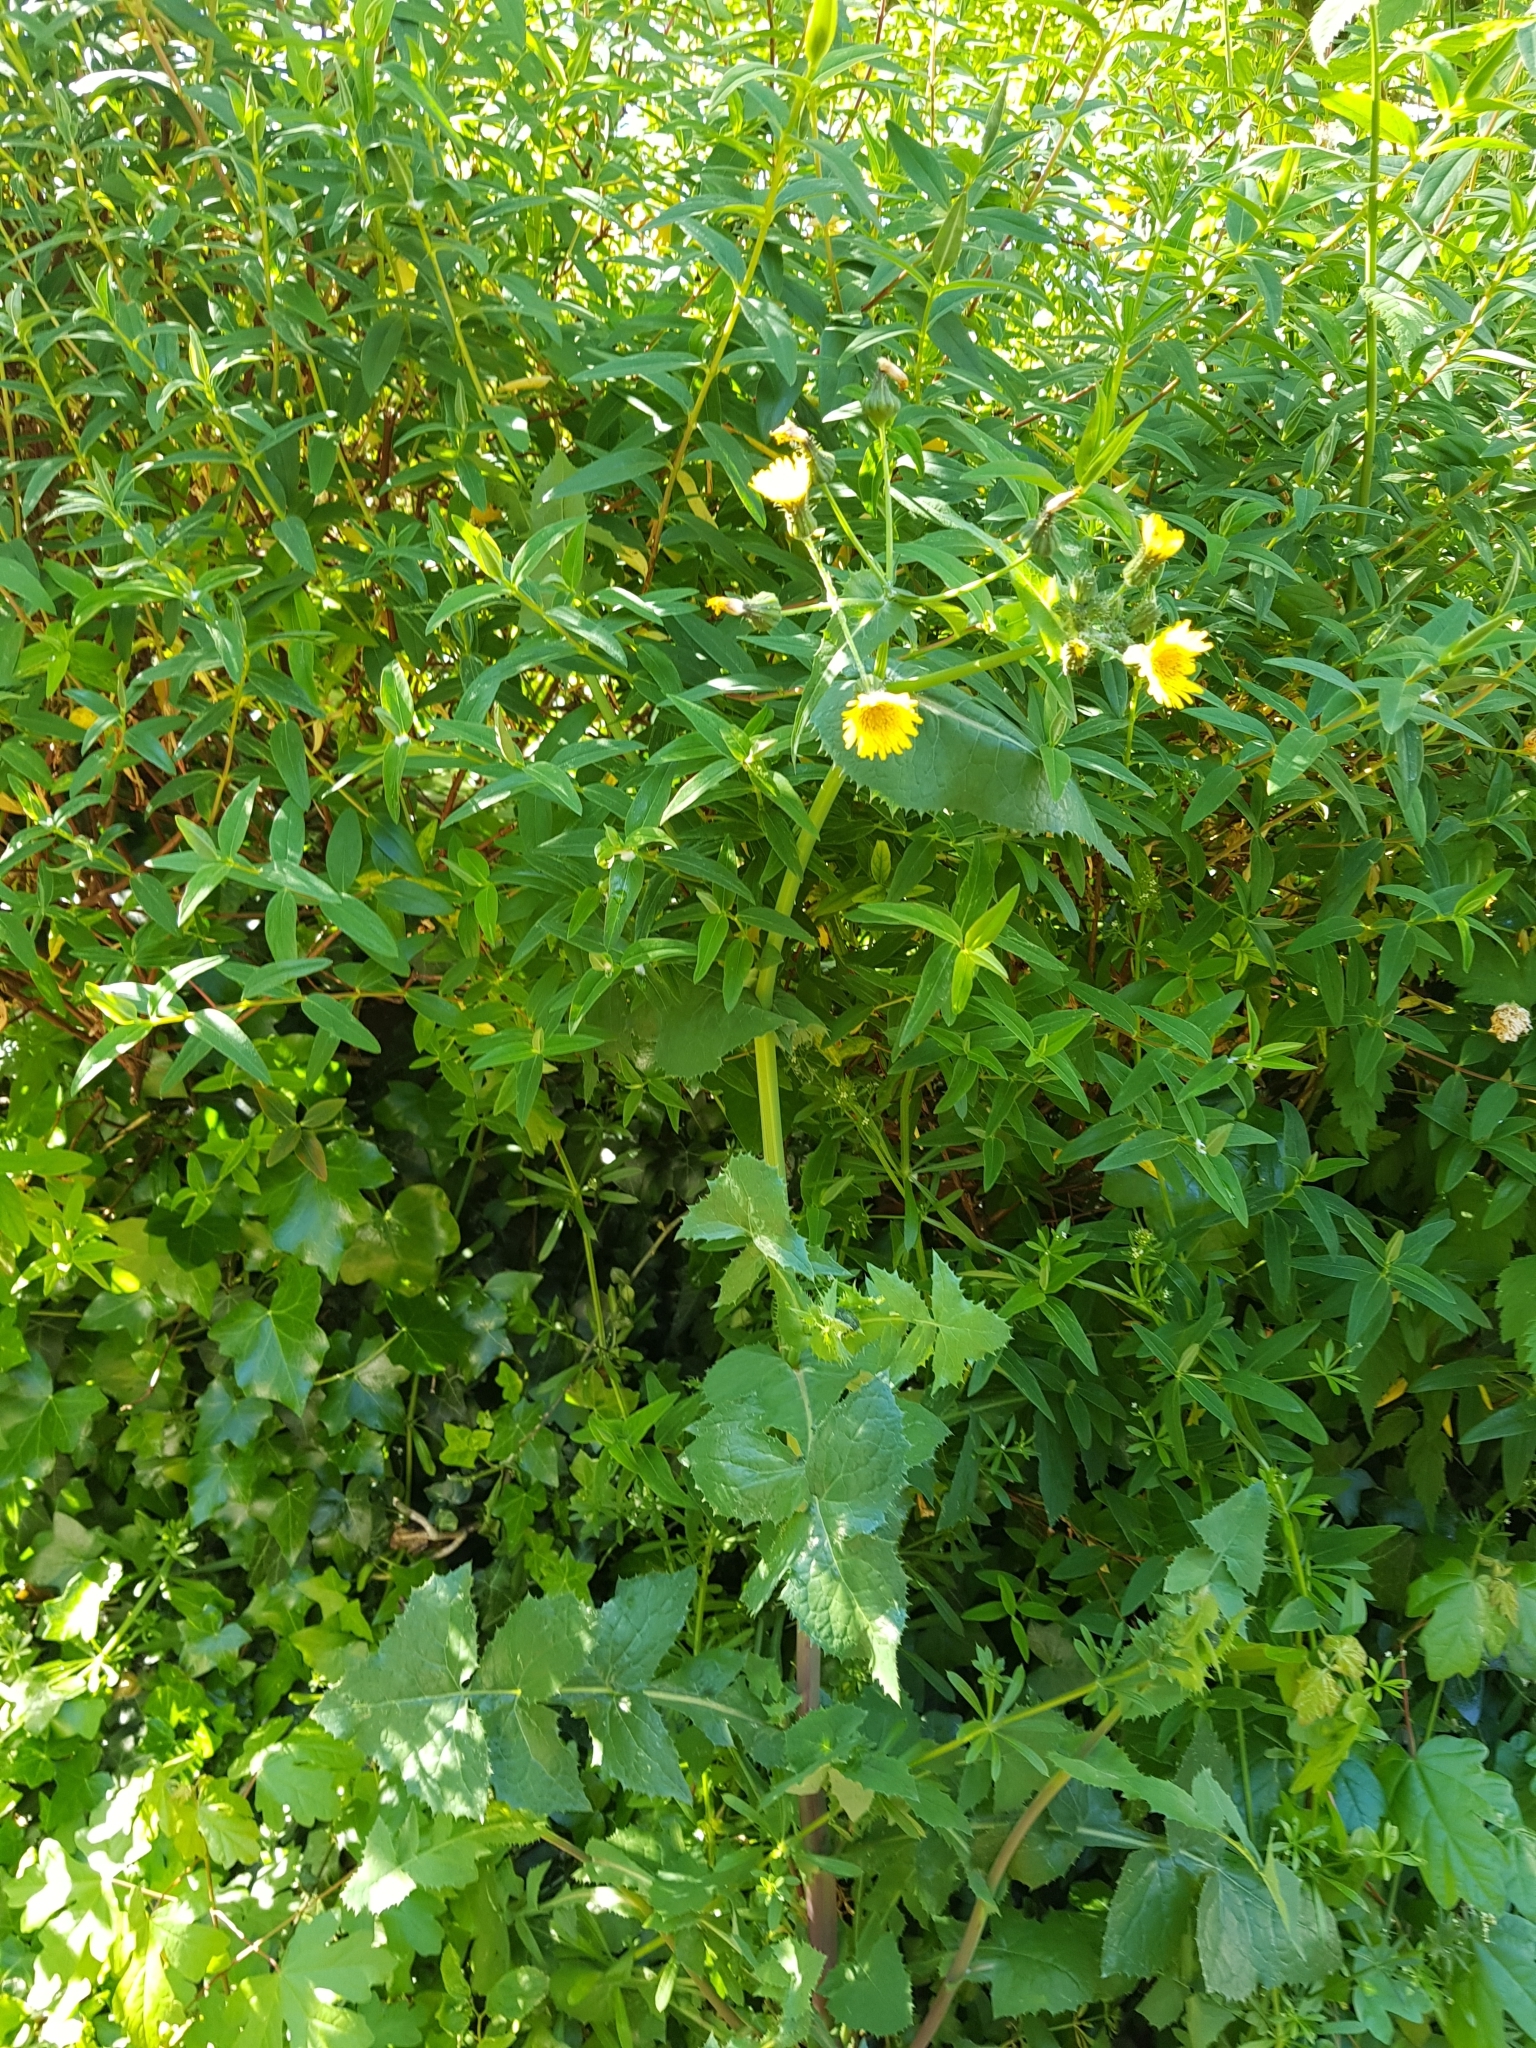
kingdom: Plantae
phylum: Tracheophyta
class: Magnoliopsida
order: Asterales
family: Asteraceae
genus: Sonchus
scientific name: Sonchus oleraceus
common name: Common sowthistle
